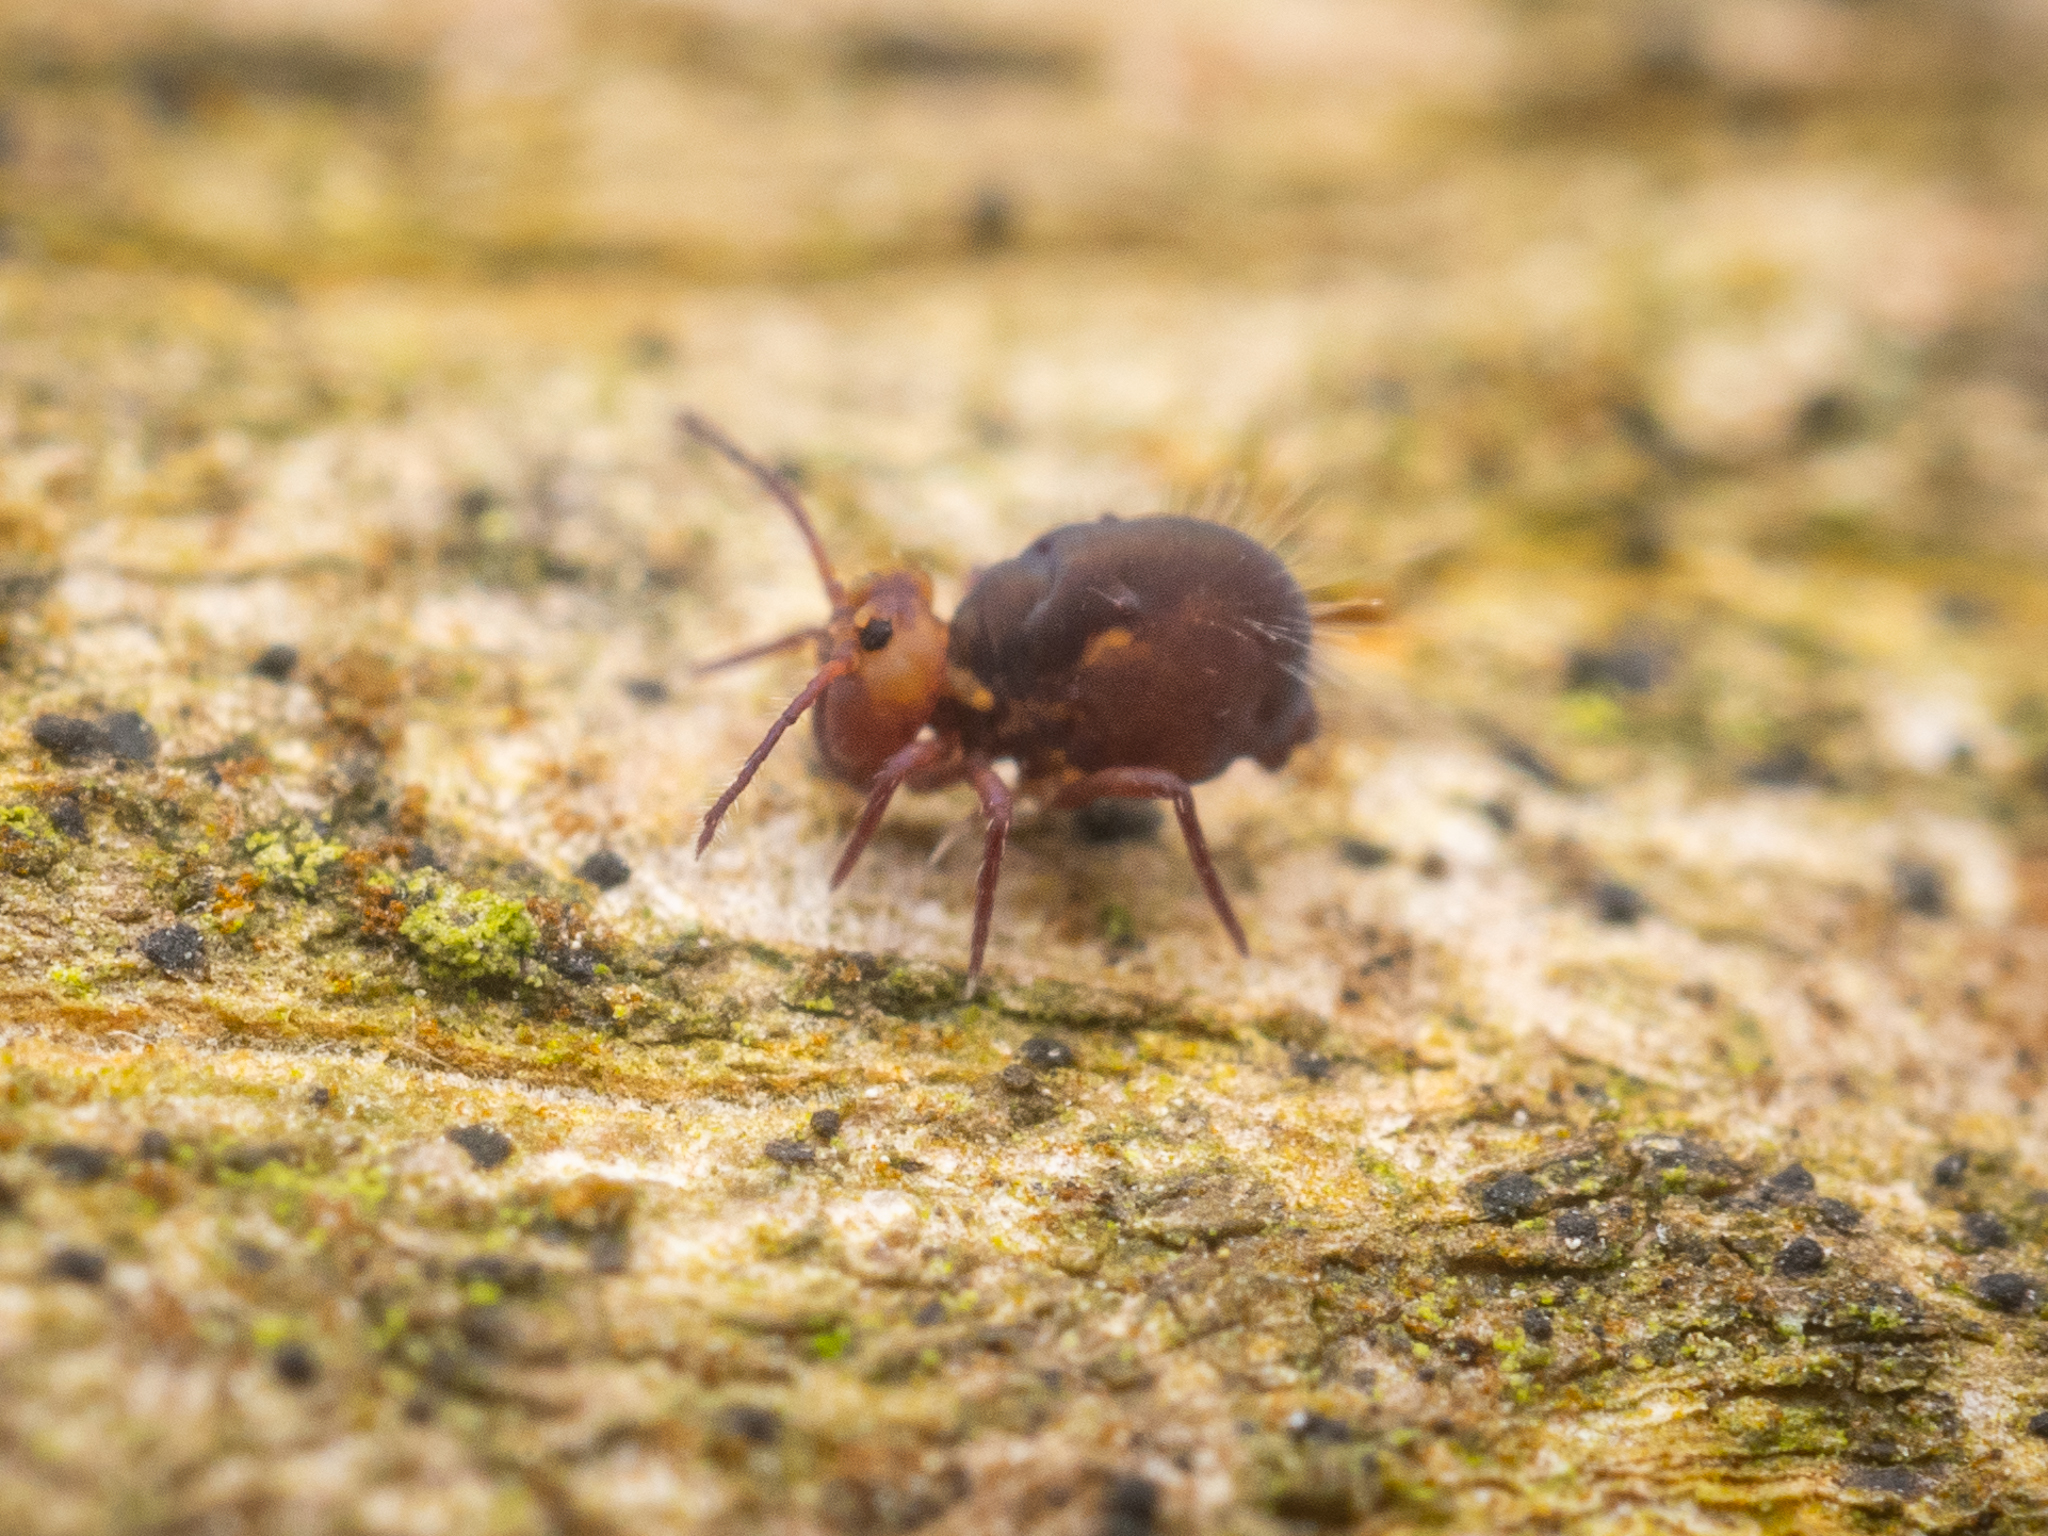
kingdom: Animalia
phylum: Arthropoda
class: Collembola
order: Symphypleona
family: Dicyrtomidae
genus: Dicyrtoma
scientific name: Dicyrtoma fusca
